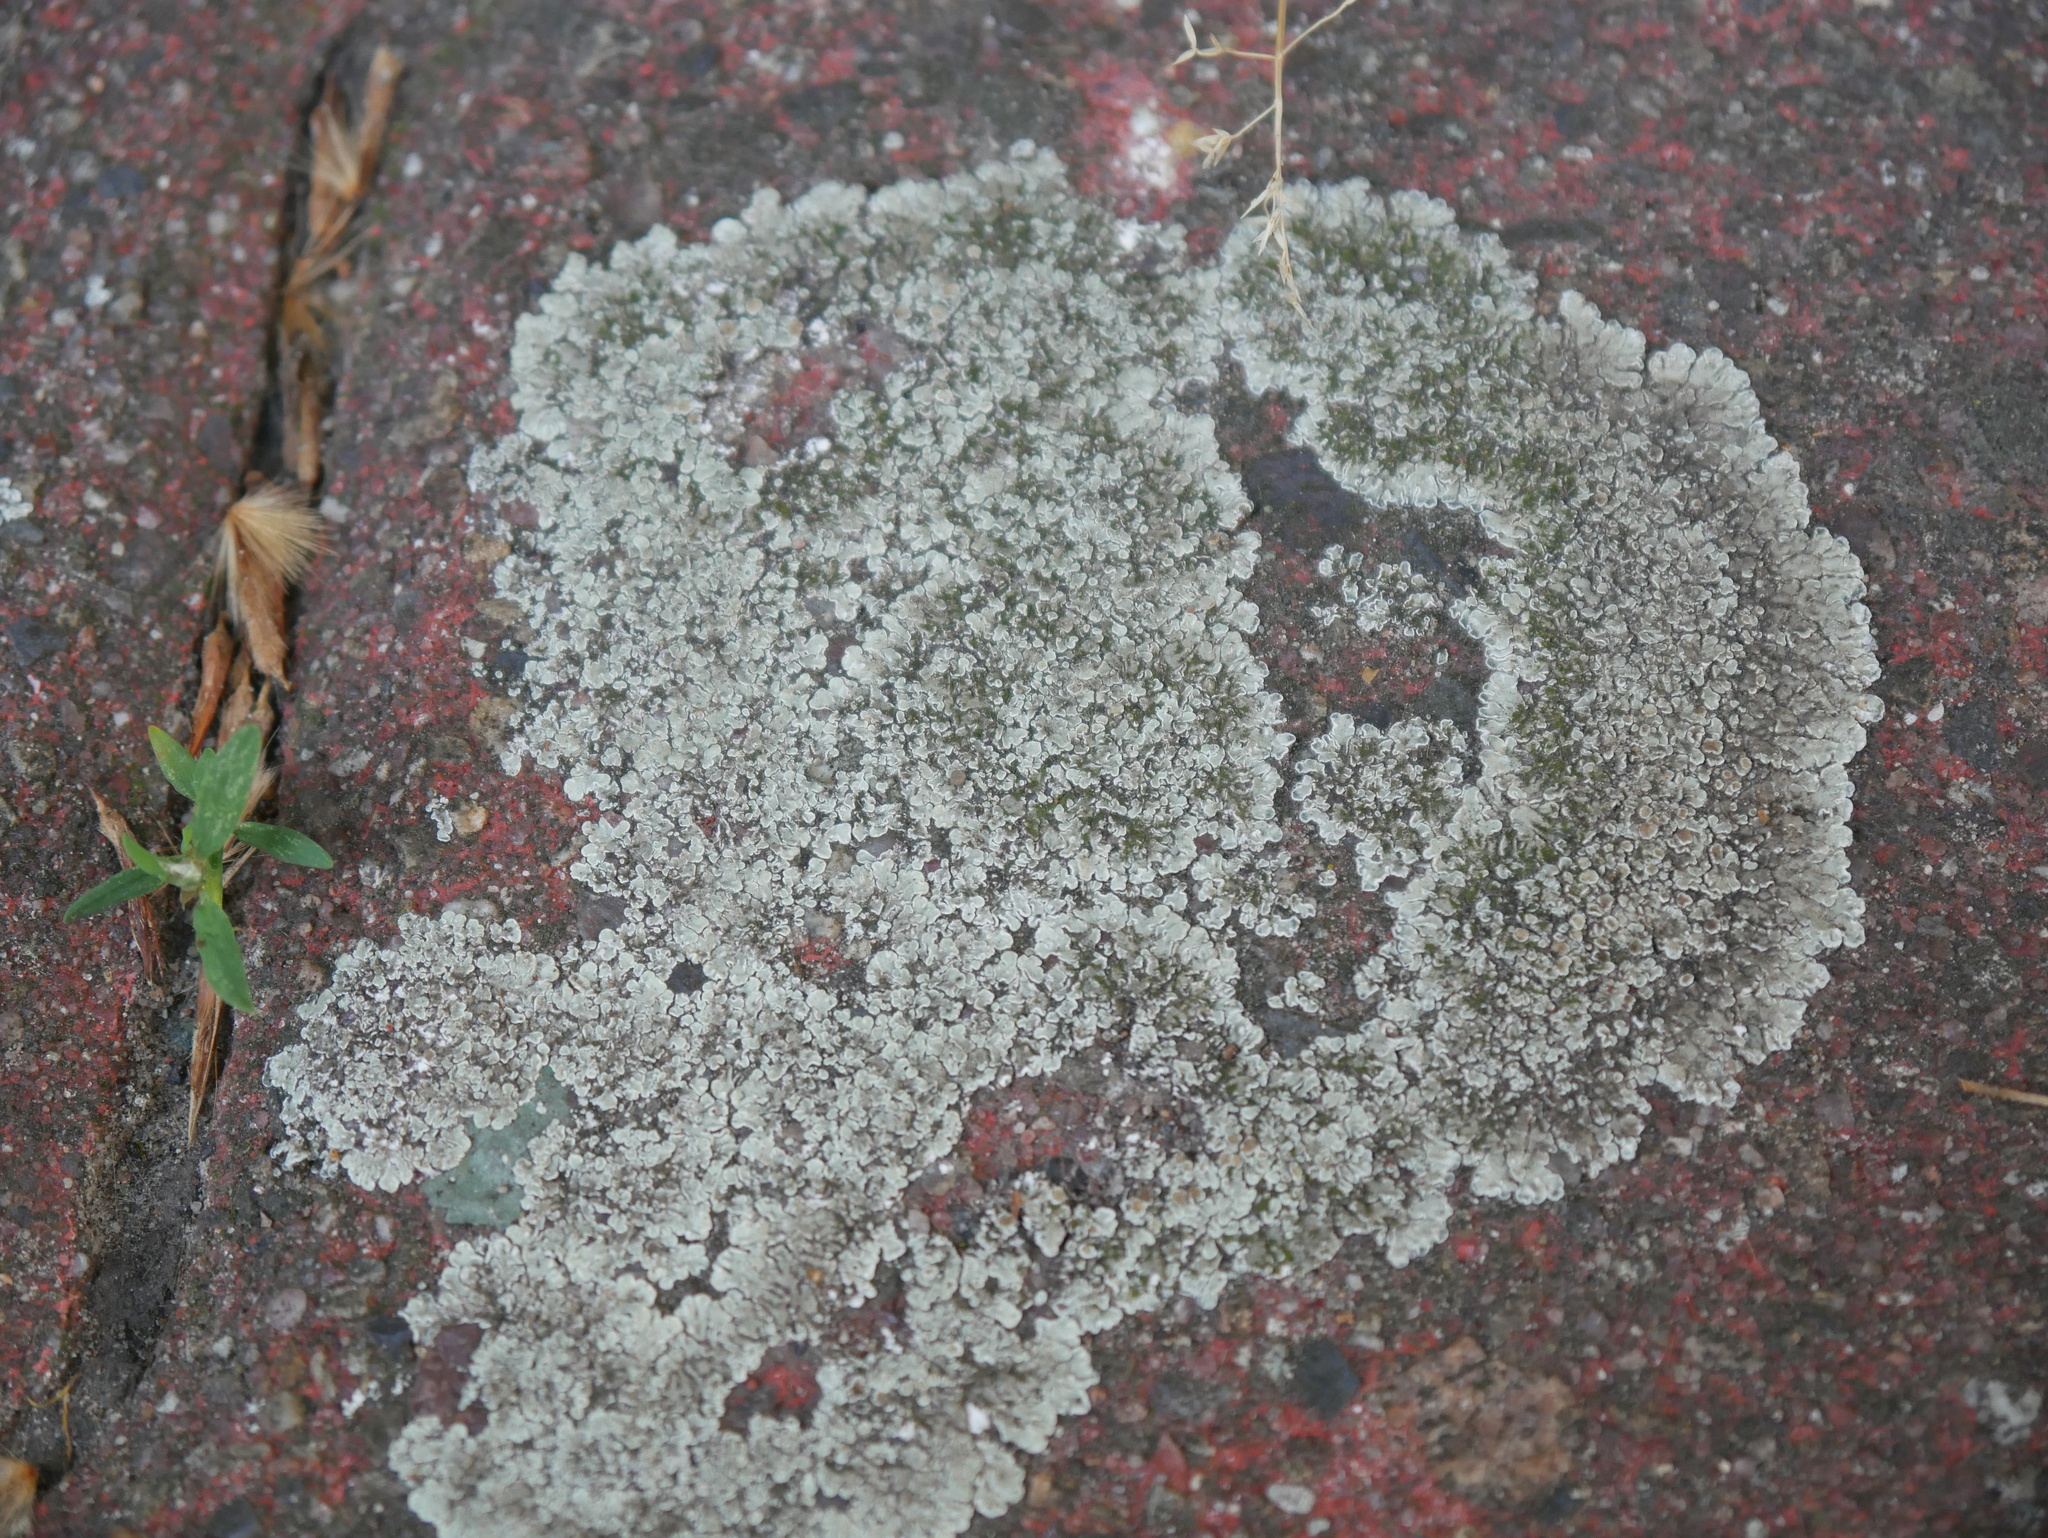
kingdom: Fungi
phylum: Ascomycota
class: Lecanoromycetes
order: Lecanorales
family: Lecanoraceae
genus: Protoparmeliopsis
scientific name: Protoparmeliopsis muralis
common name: Stonewall rim lichen
